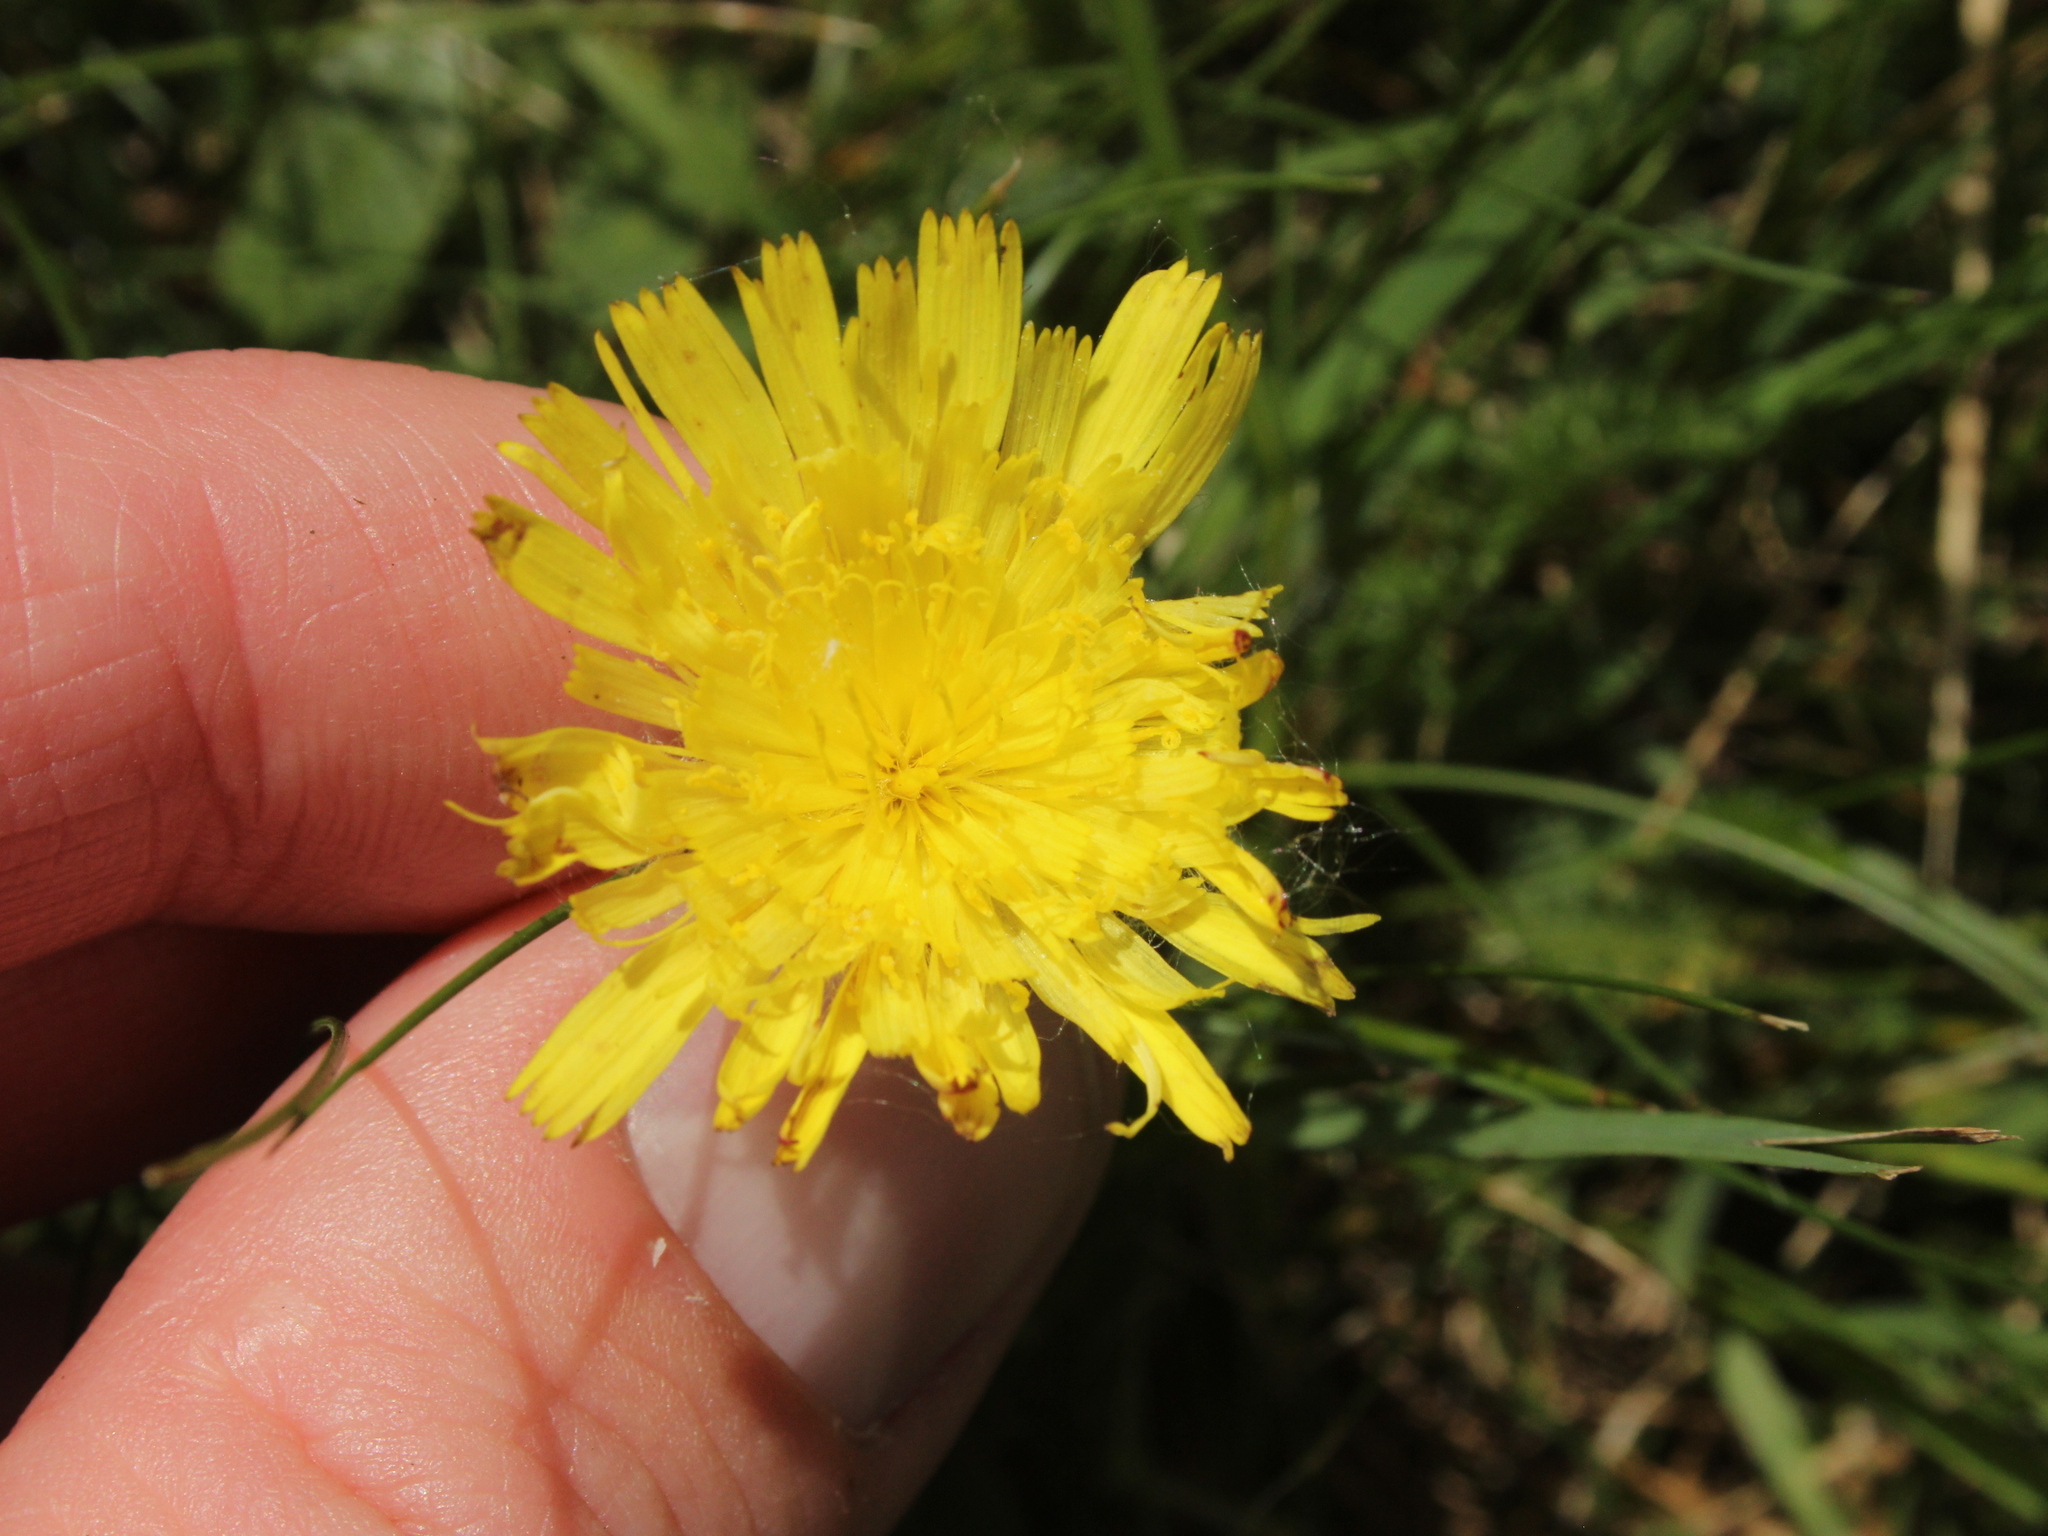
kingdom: Plantae
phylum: Tracheophyta
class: Magnoliopsida
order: Asterales
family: Asteraceae
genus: Pilosella
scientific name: Pilosella officinarum
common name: Mouse-ear hawkweed
